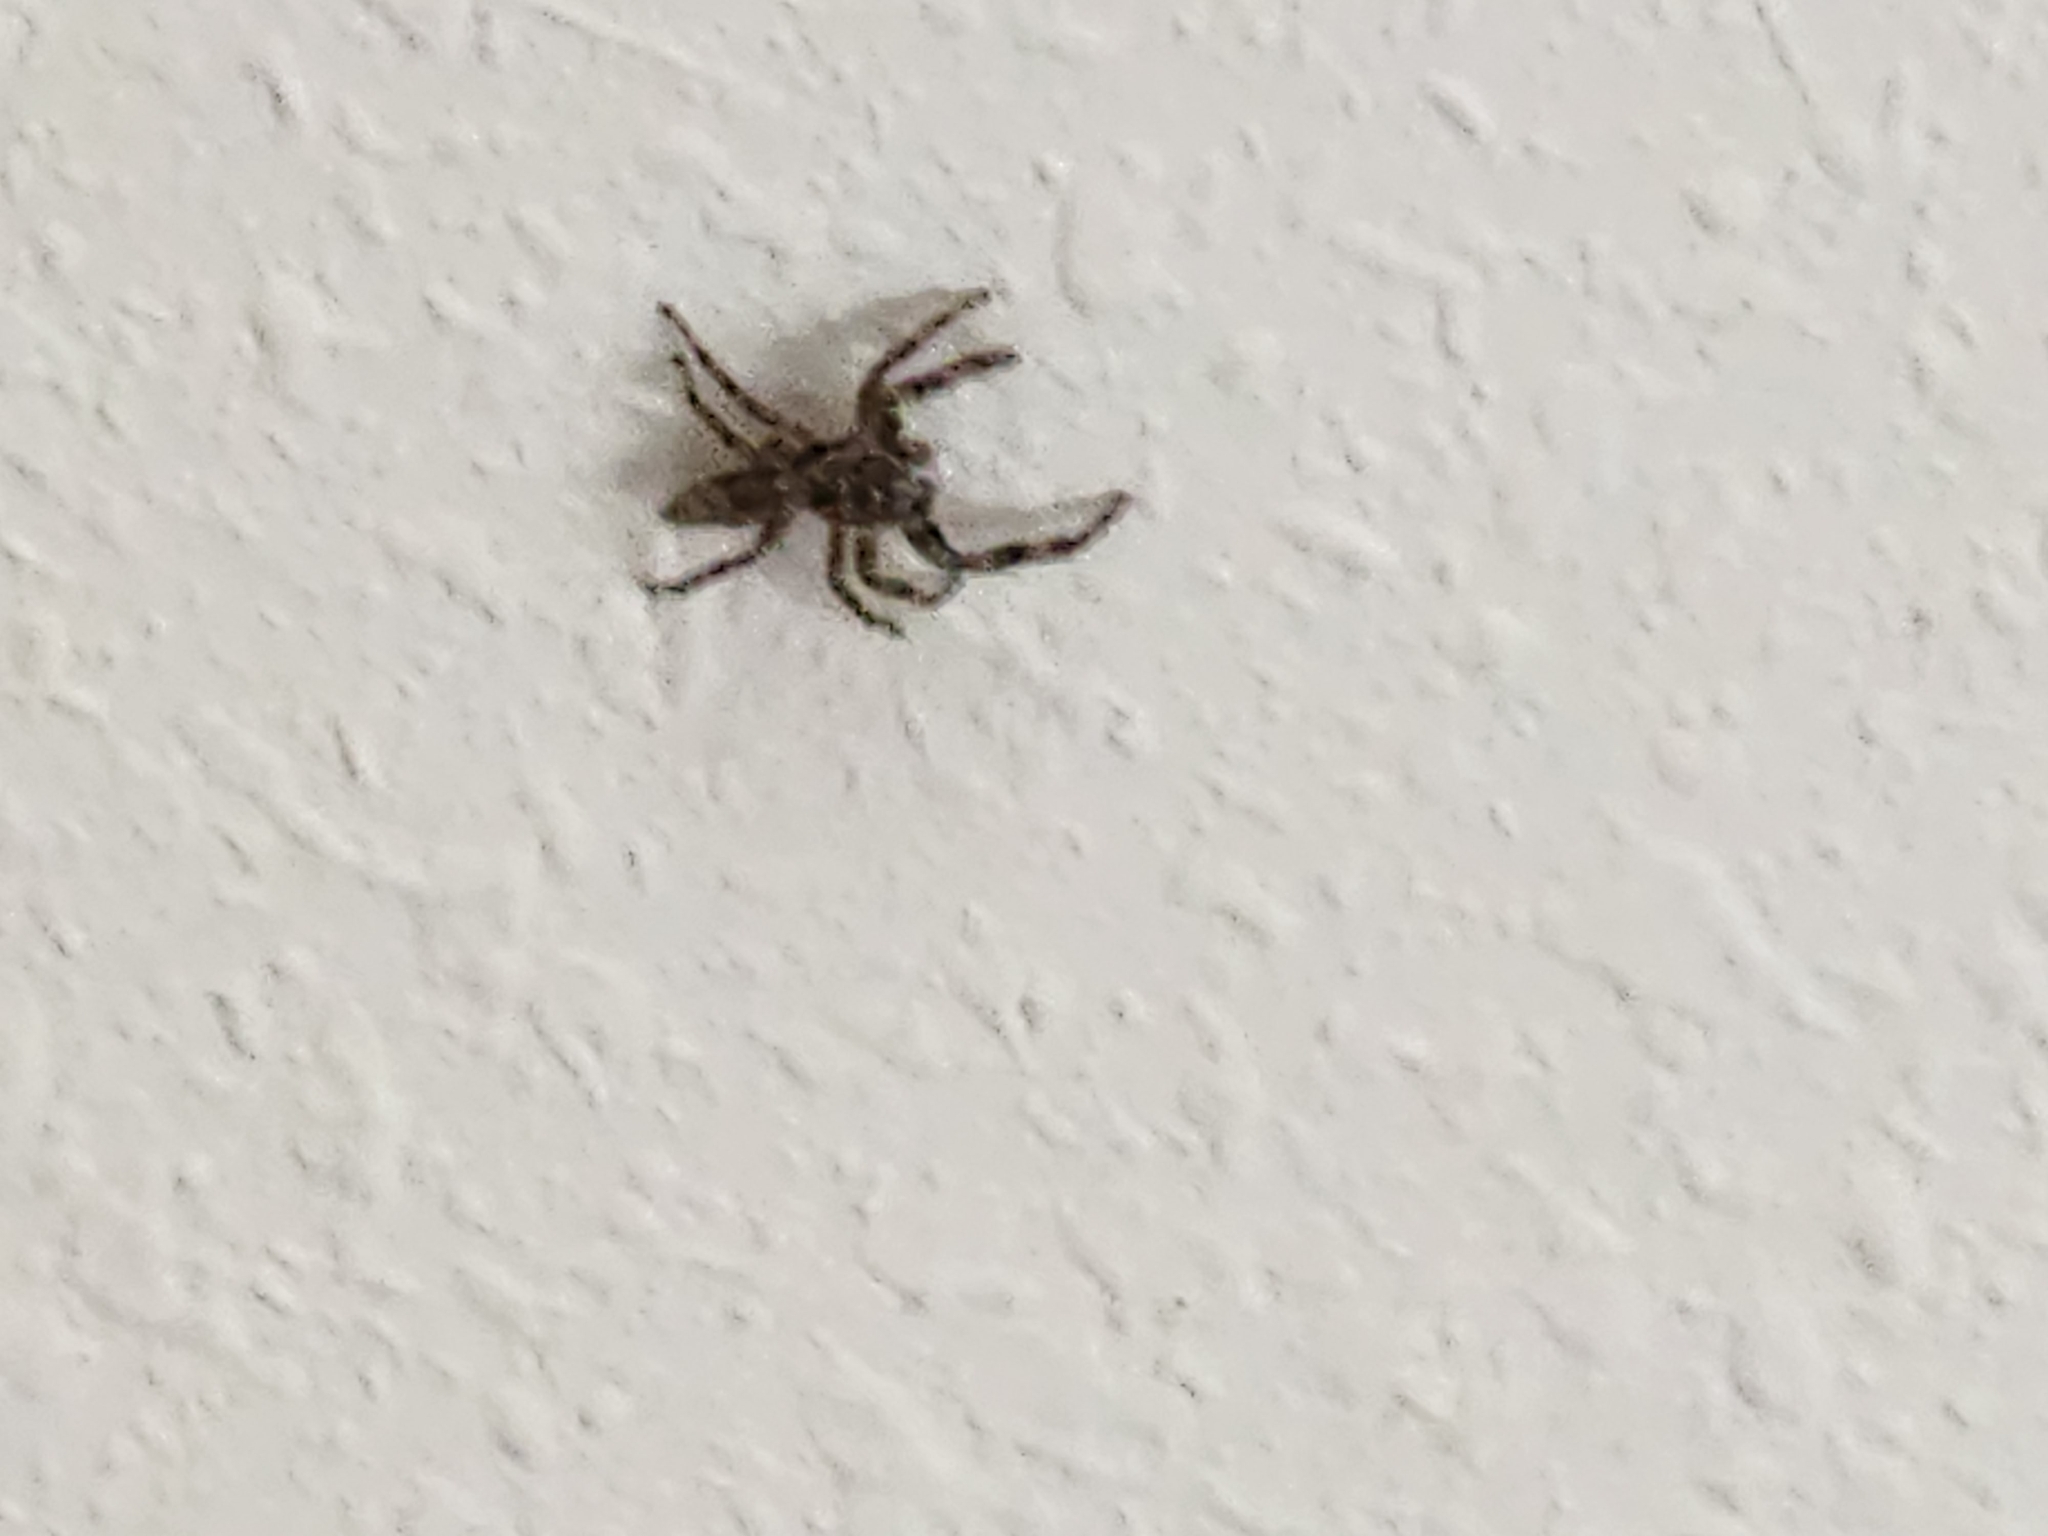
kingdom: Animalia
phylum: Arthropoda
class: Arachnida
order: Araneae
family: Salticidae
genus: Platycryptus
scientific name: Platycryptus undatus
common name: Tan jumping spider
